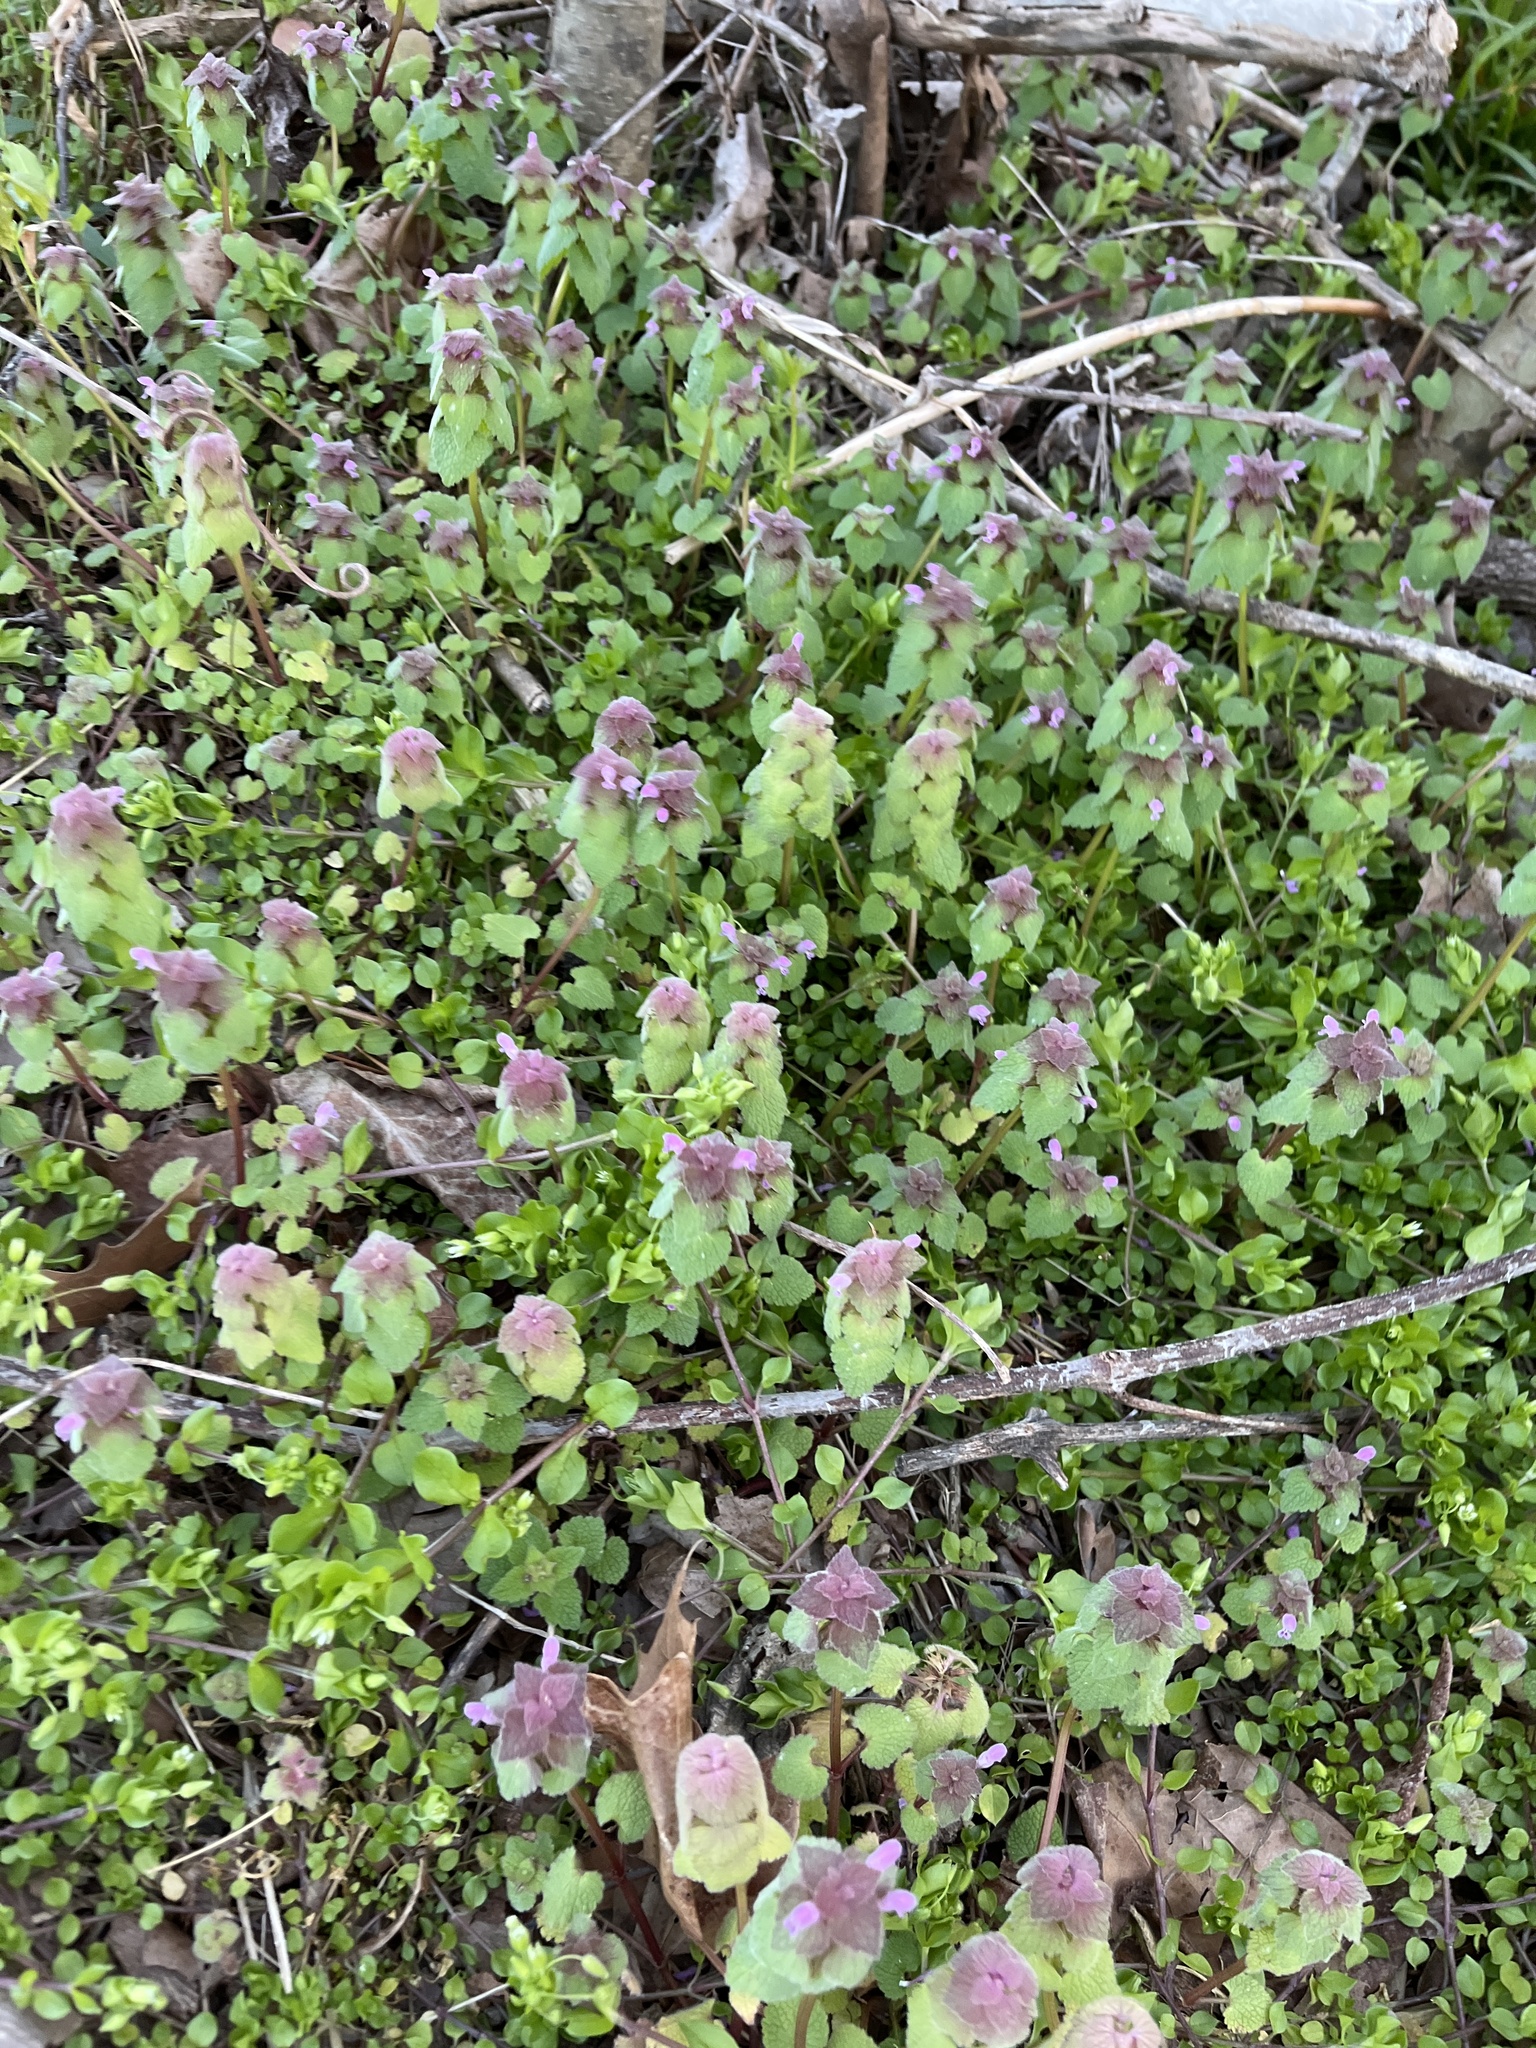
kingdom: Plantae
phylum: Tracheophyta
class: Magnoliopsida
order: Lamiales
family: Lamiaceae
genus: Lamium
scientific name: Lamium purpureum
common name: Red dead-nettle
